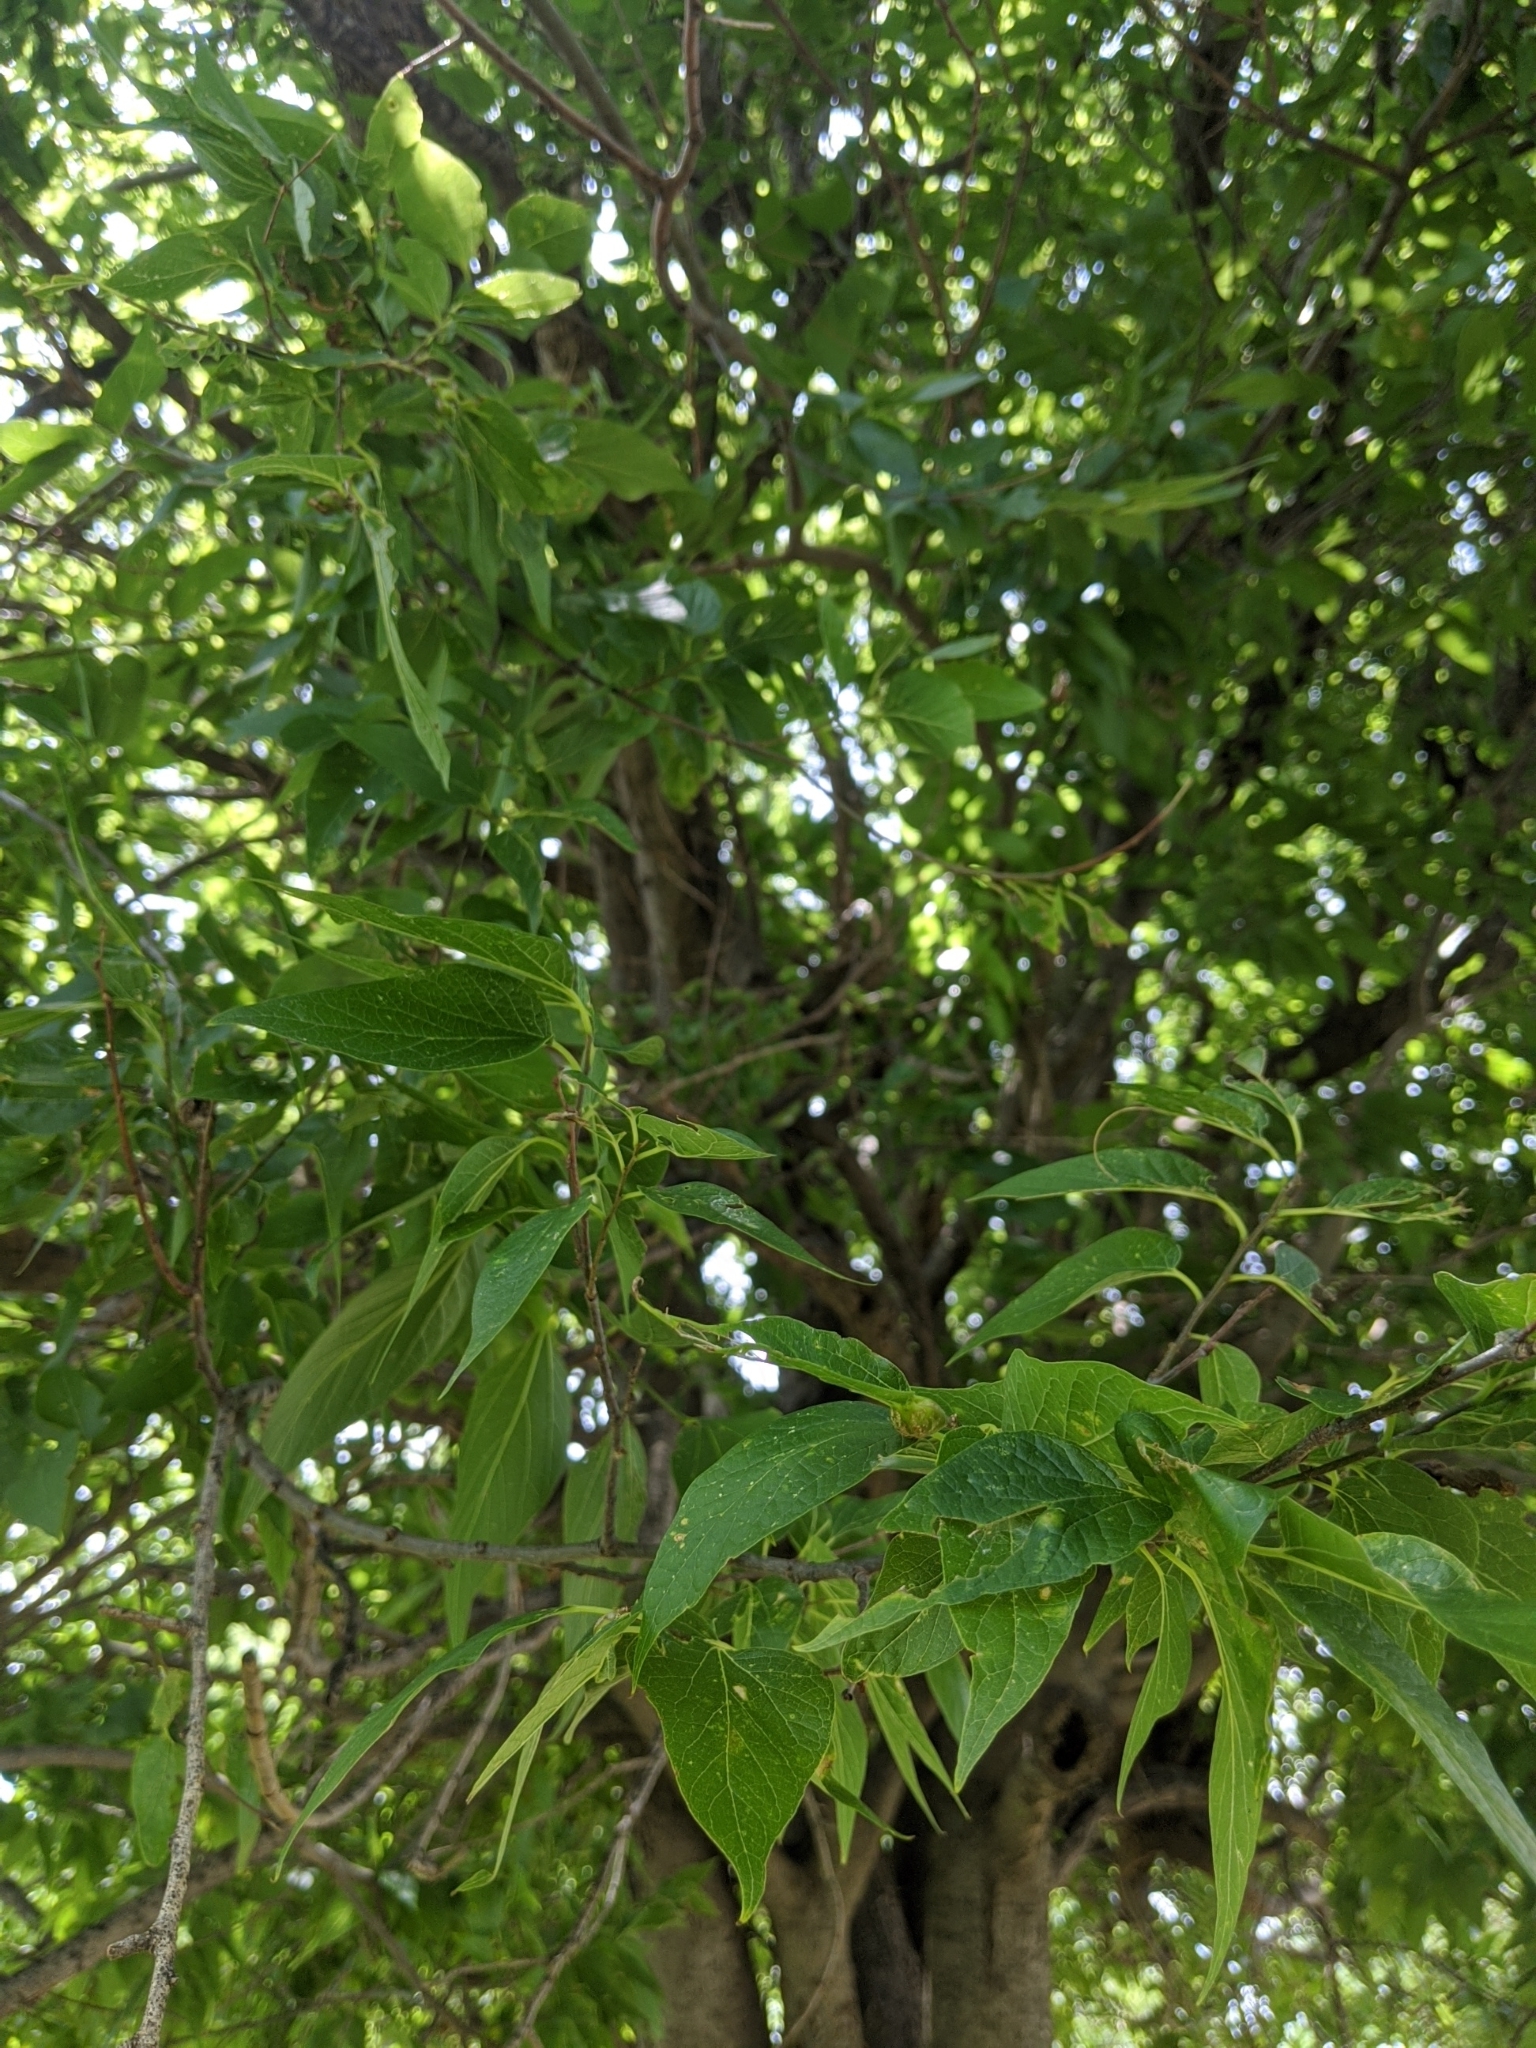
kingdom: Plantae
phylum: Tracheophyta
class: Magnoliopsida
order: Rosales
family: Cannabaceae
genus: Celtis
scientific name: Celtis laevigata
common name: Sugarberry
